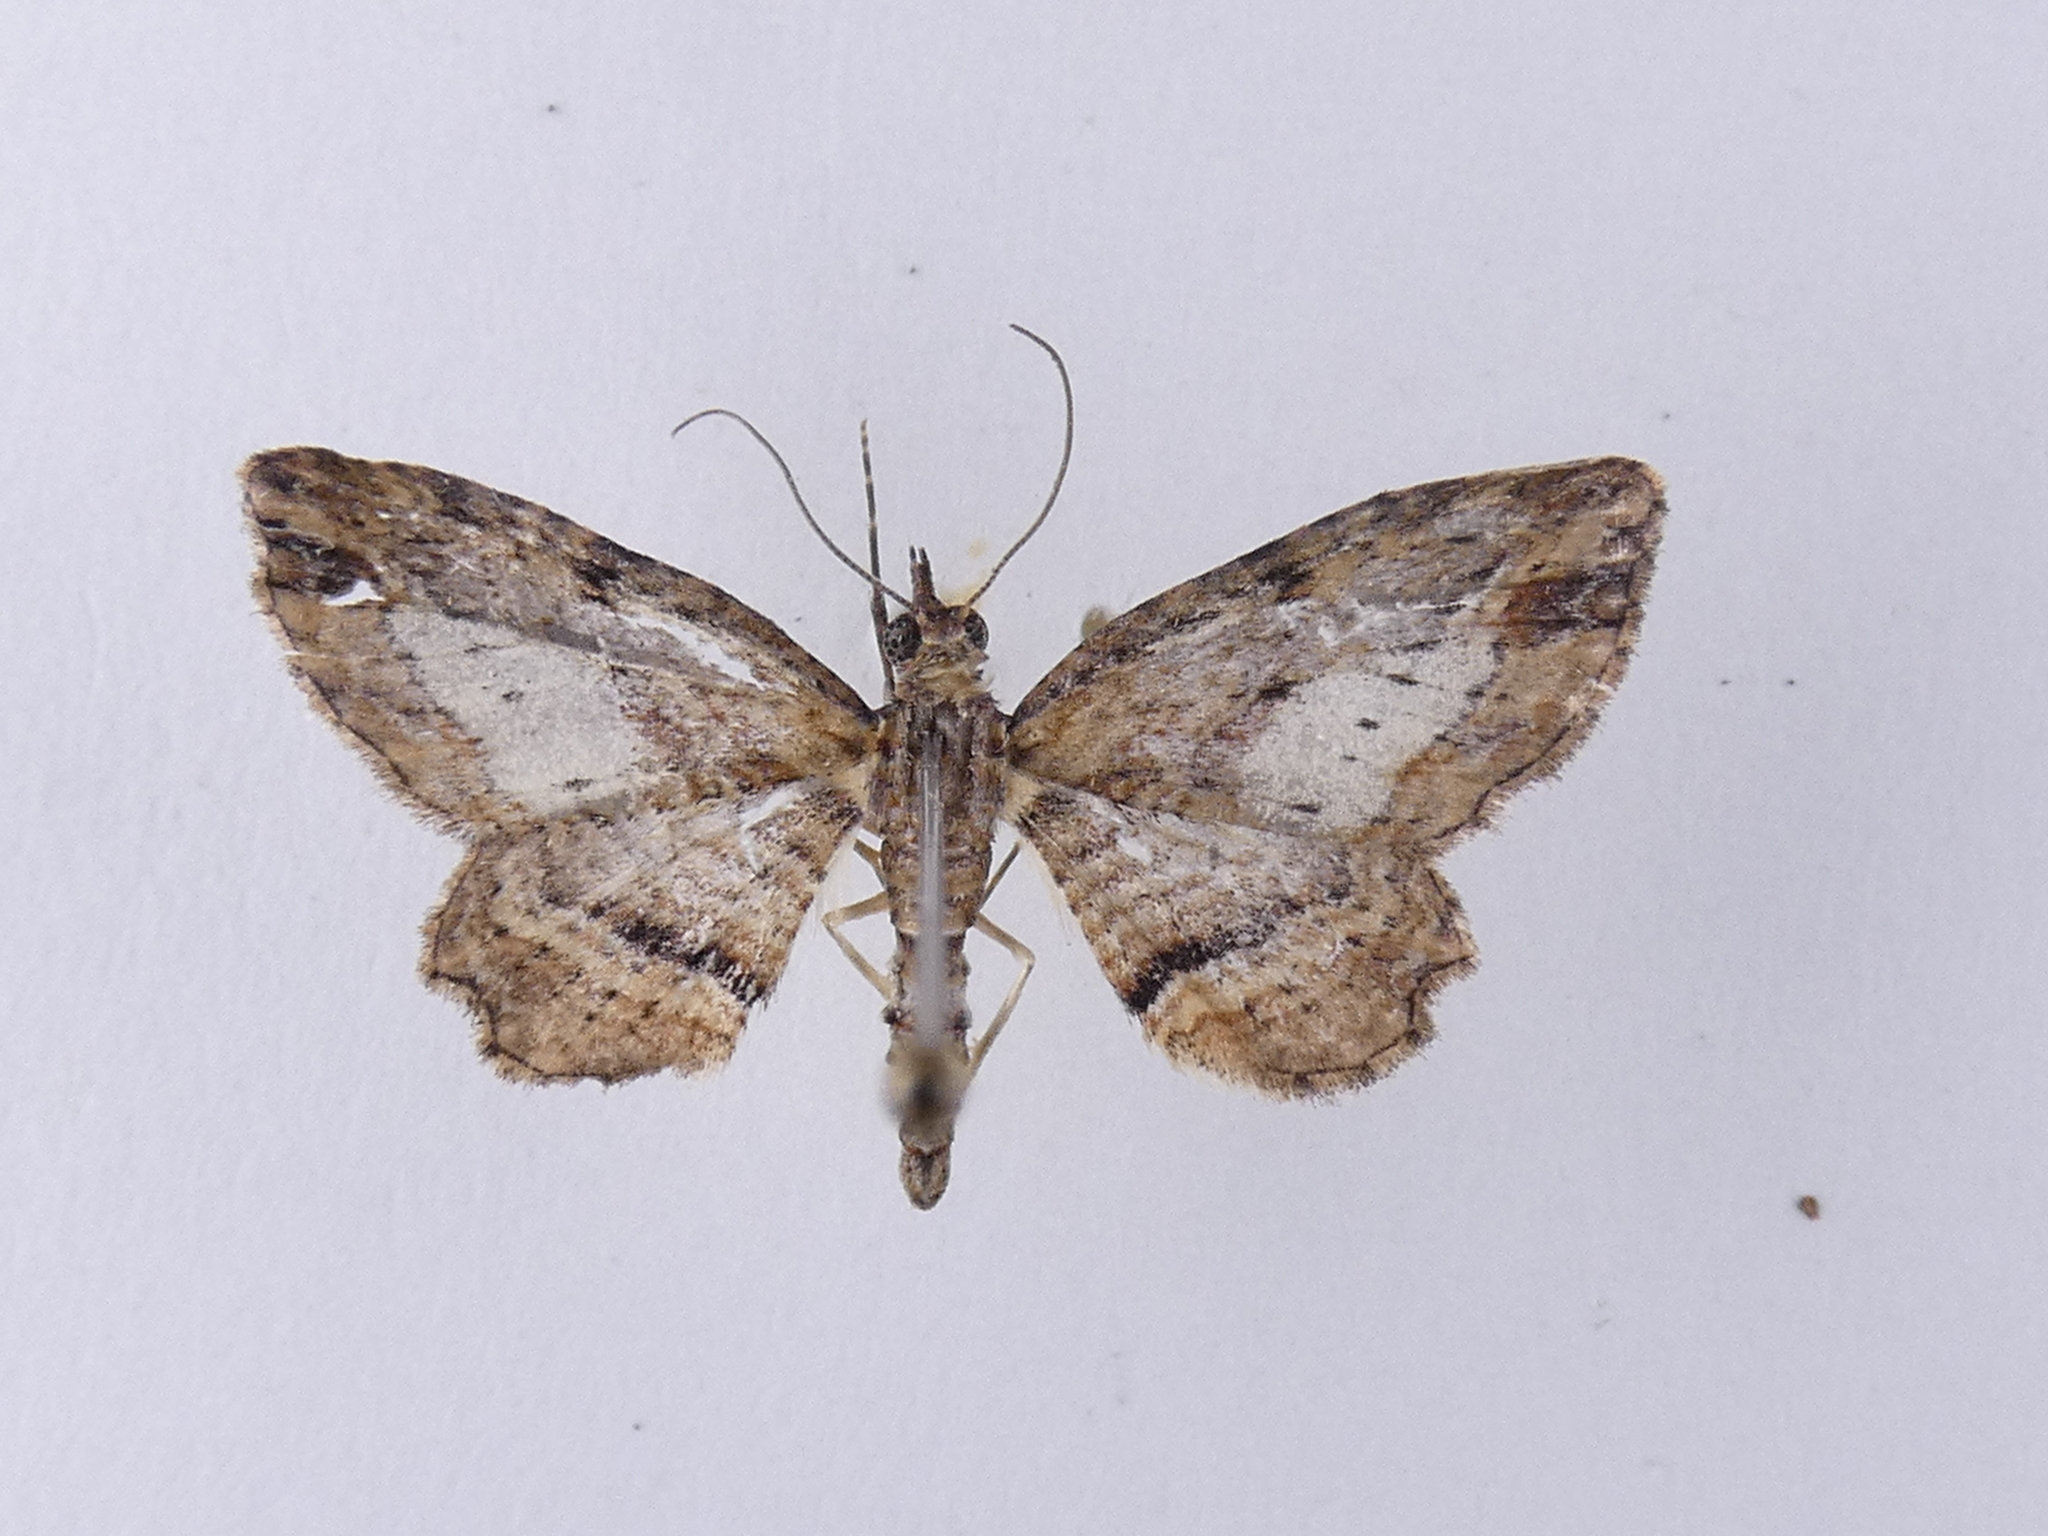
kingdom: Animalia
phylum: Arthropoda
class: Insecta
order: Lepidoptera
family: Geometridae
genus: Chloroclystis
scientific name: Chloroclystis filata
